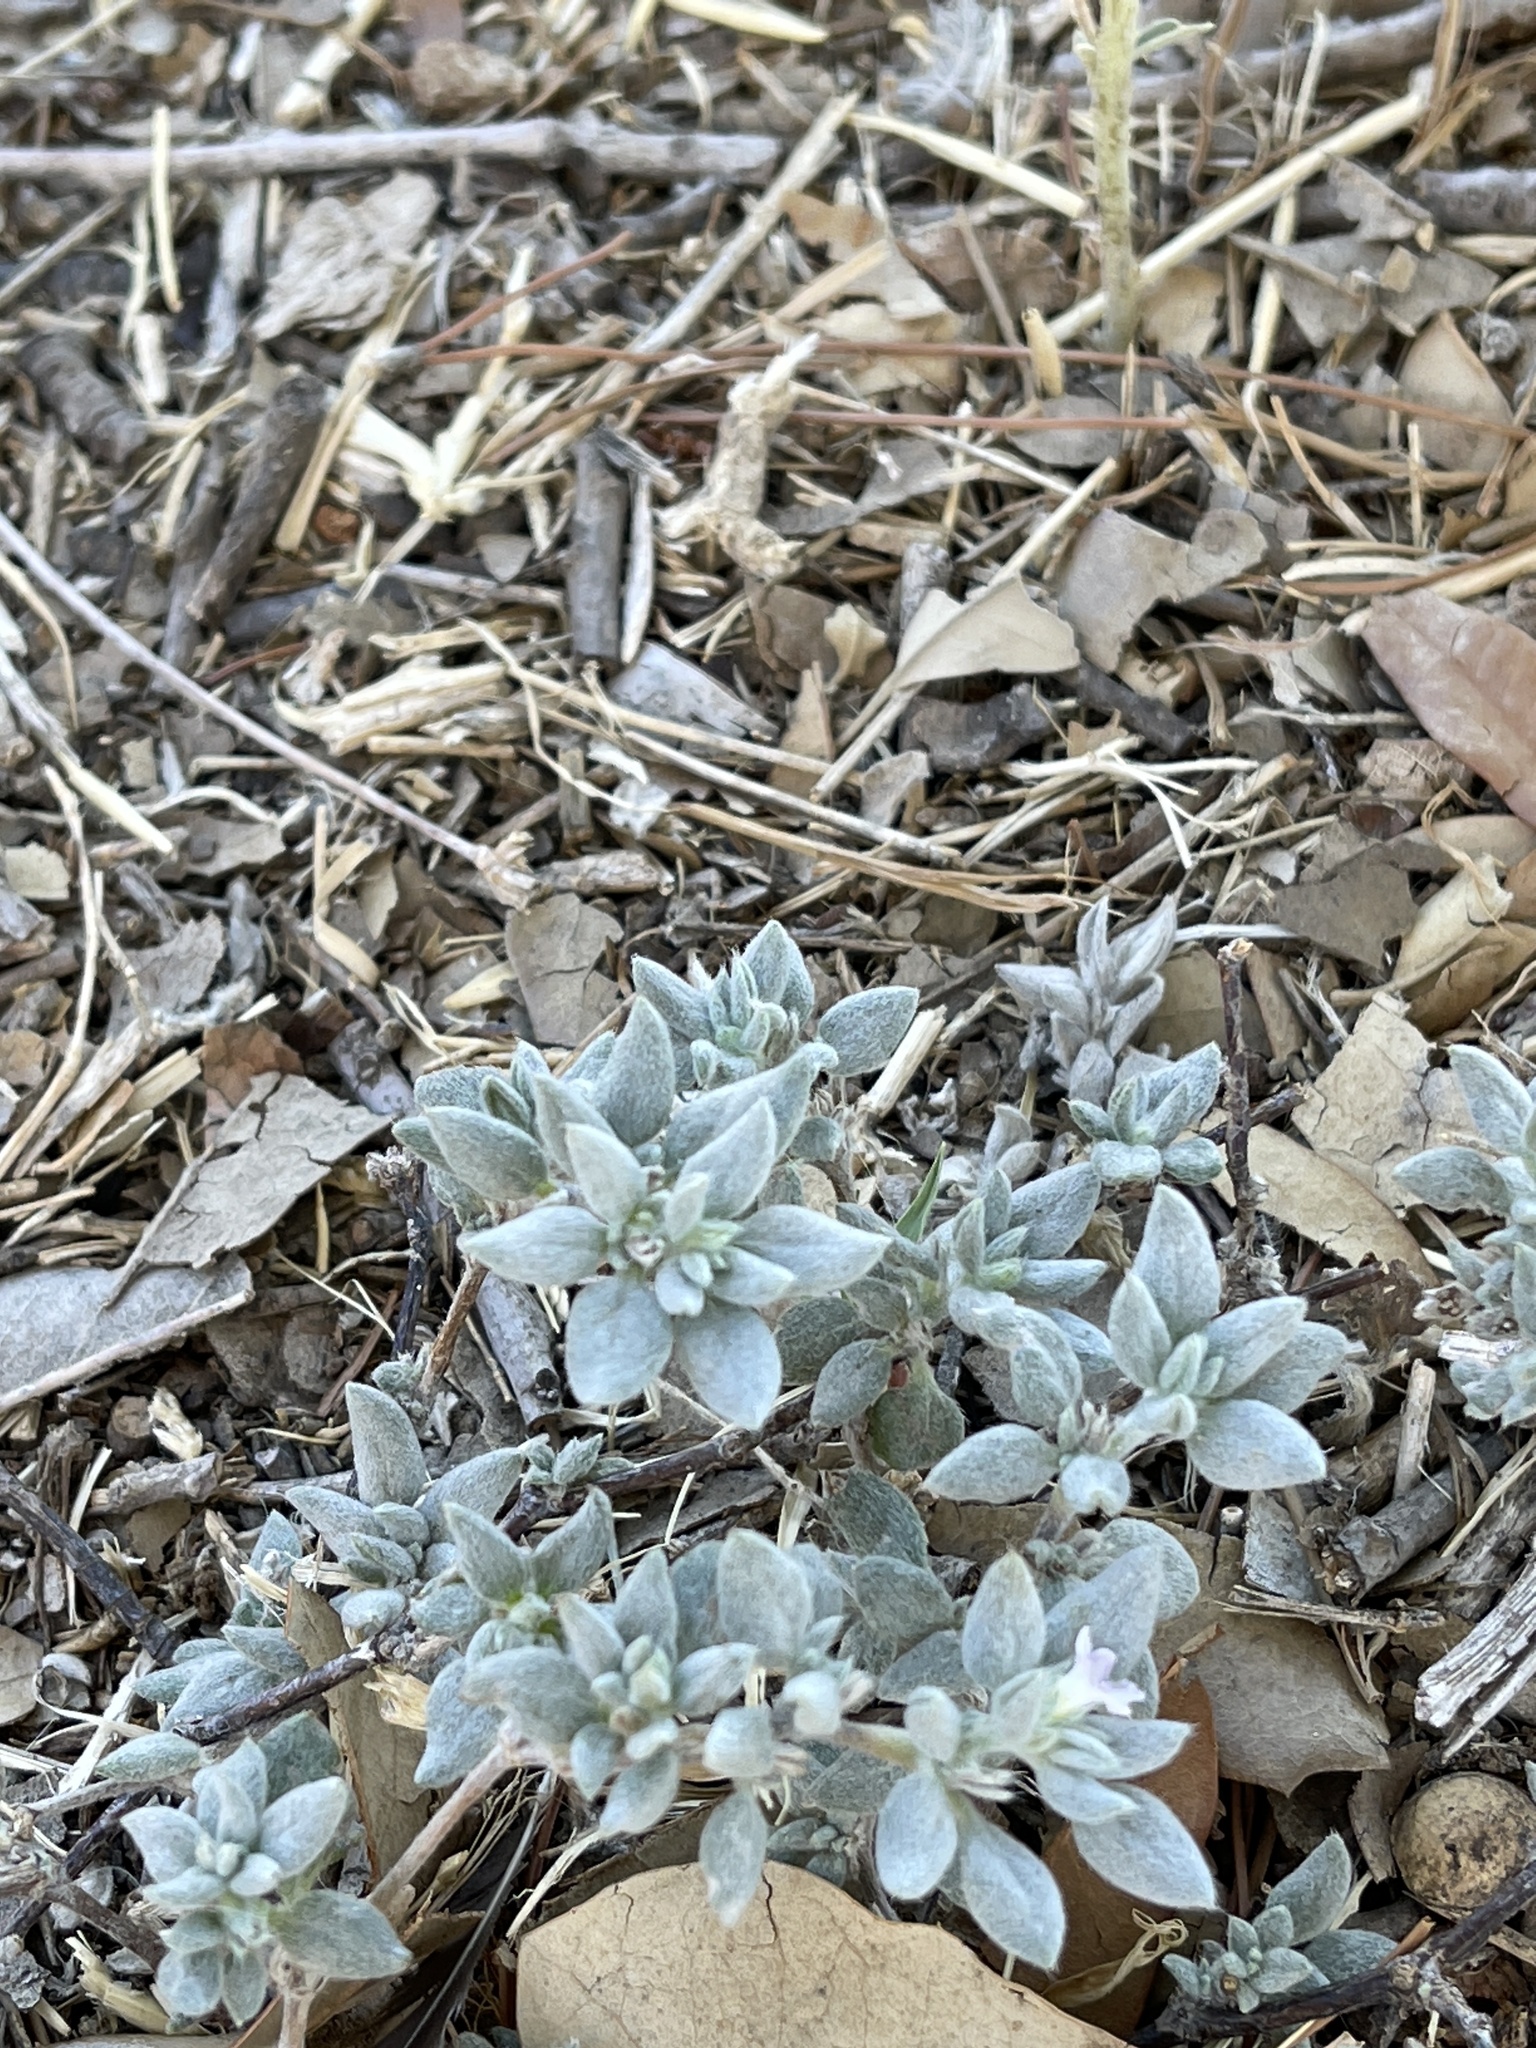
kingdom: Plantae
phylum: Tracheophyta
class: Magnoliopsida
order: Boraginales
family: Ehretiaceae
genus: Tiquilia
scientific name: Tiquilia canescens
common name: Hairy tiquilia
